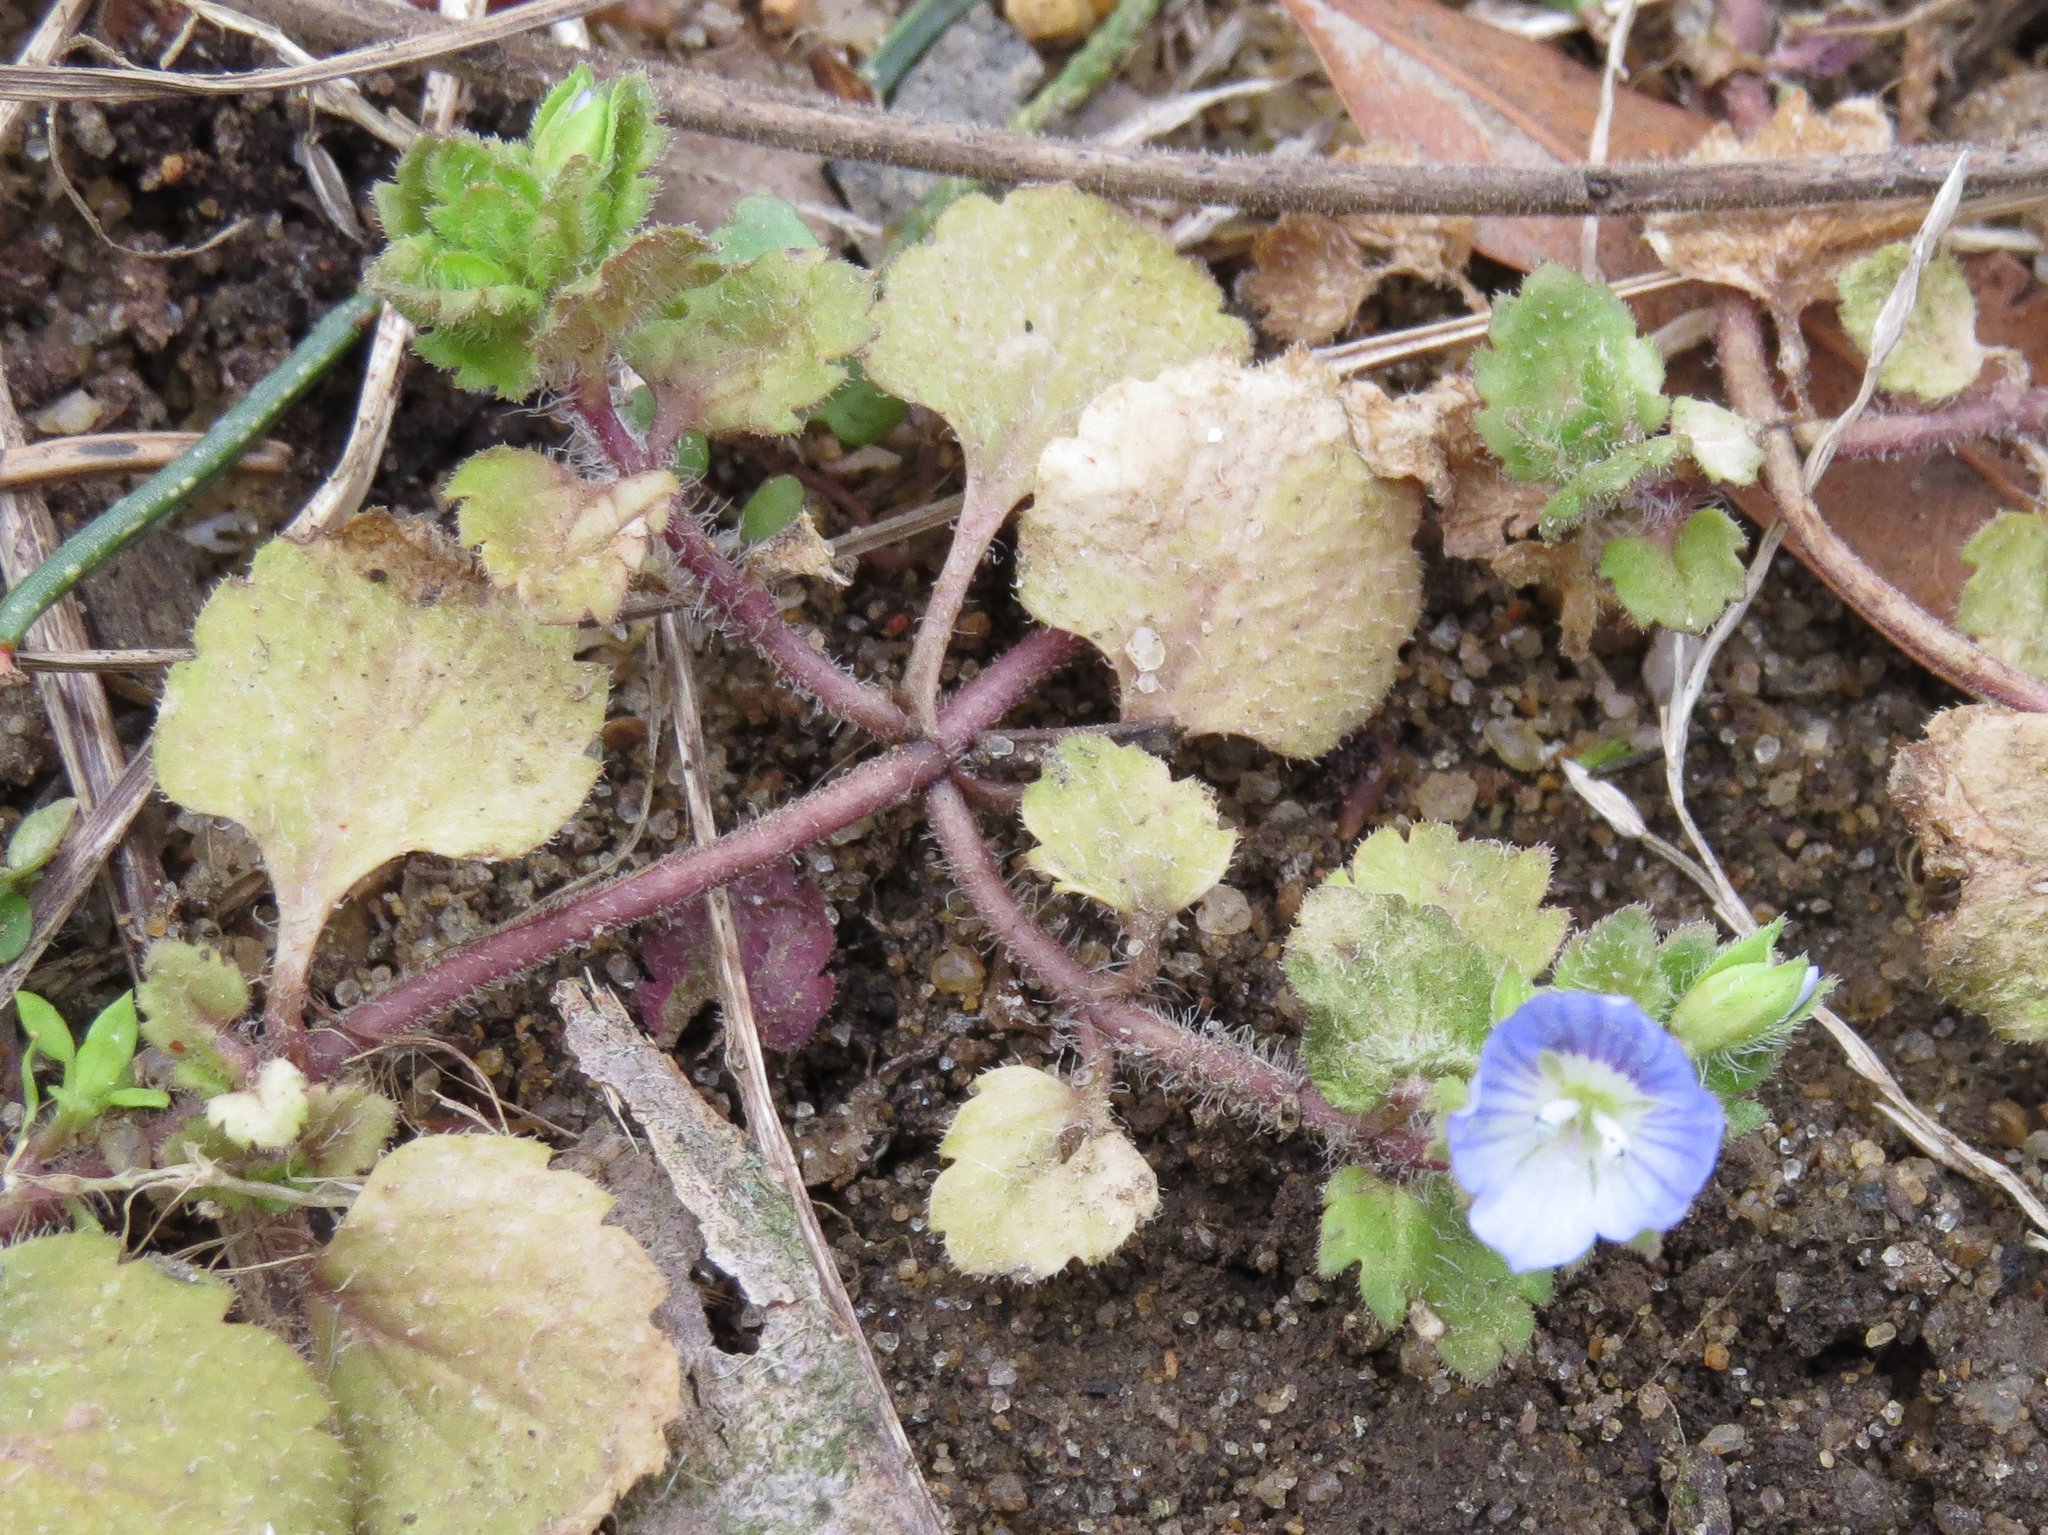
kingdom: Plantae
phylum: Tracheophyta
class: Magnoliopsida
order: Lamiales
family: Plantaginaceae
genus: Veronica
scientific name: Veronica persica
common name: Common field-speedwell
